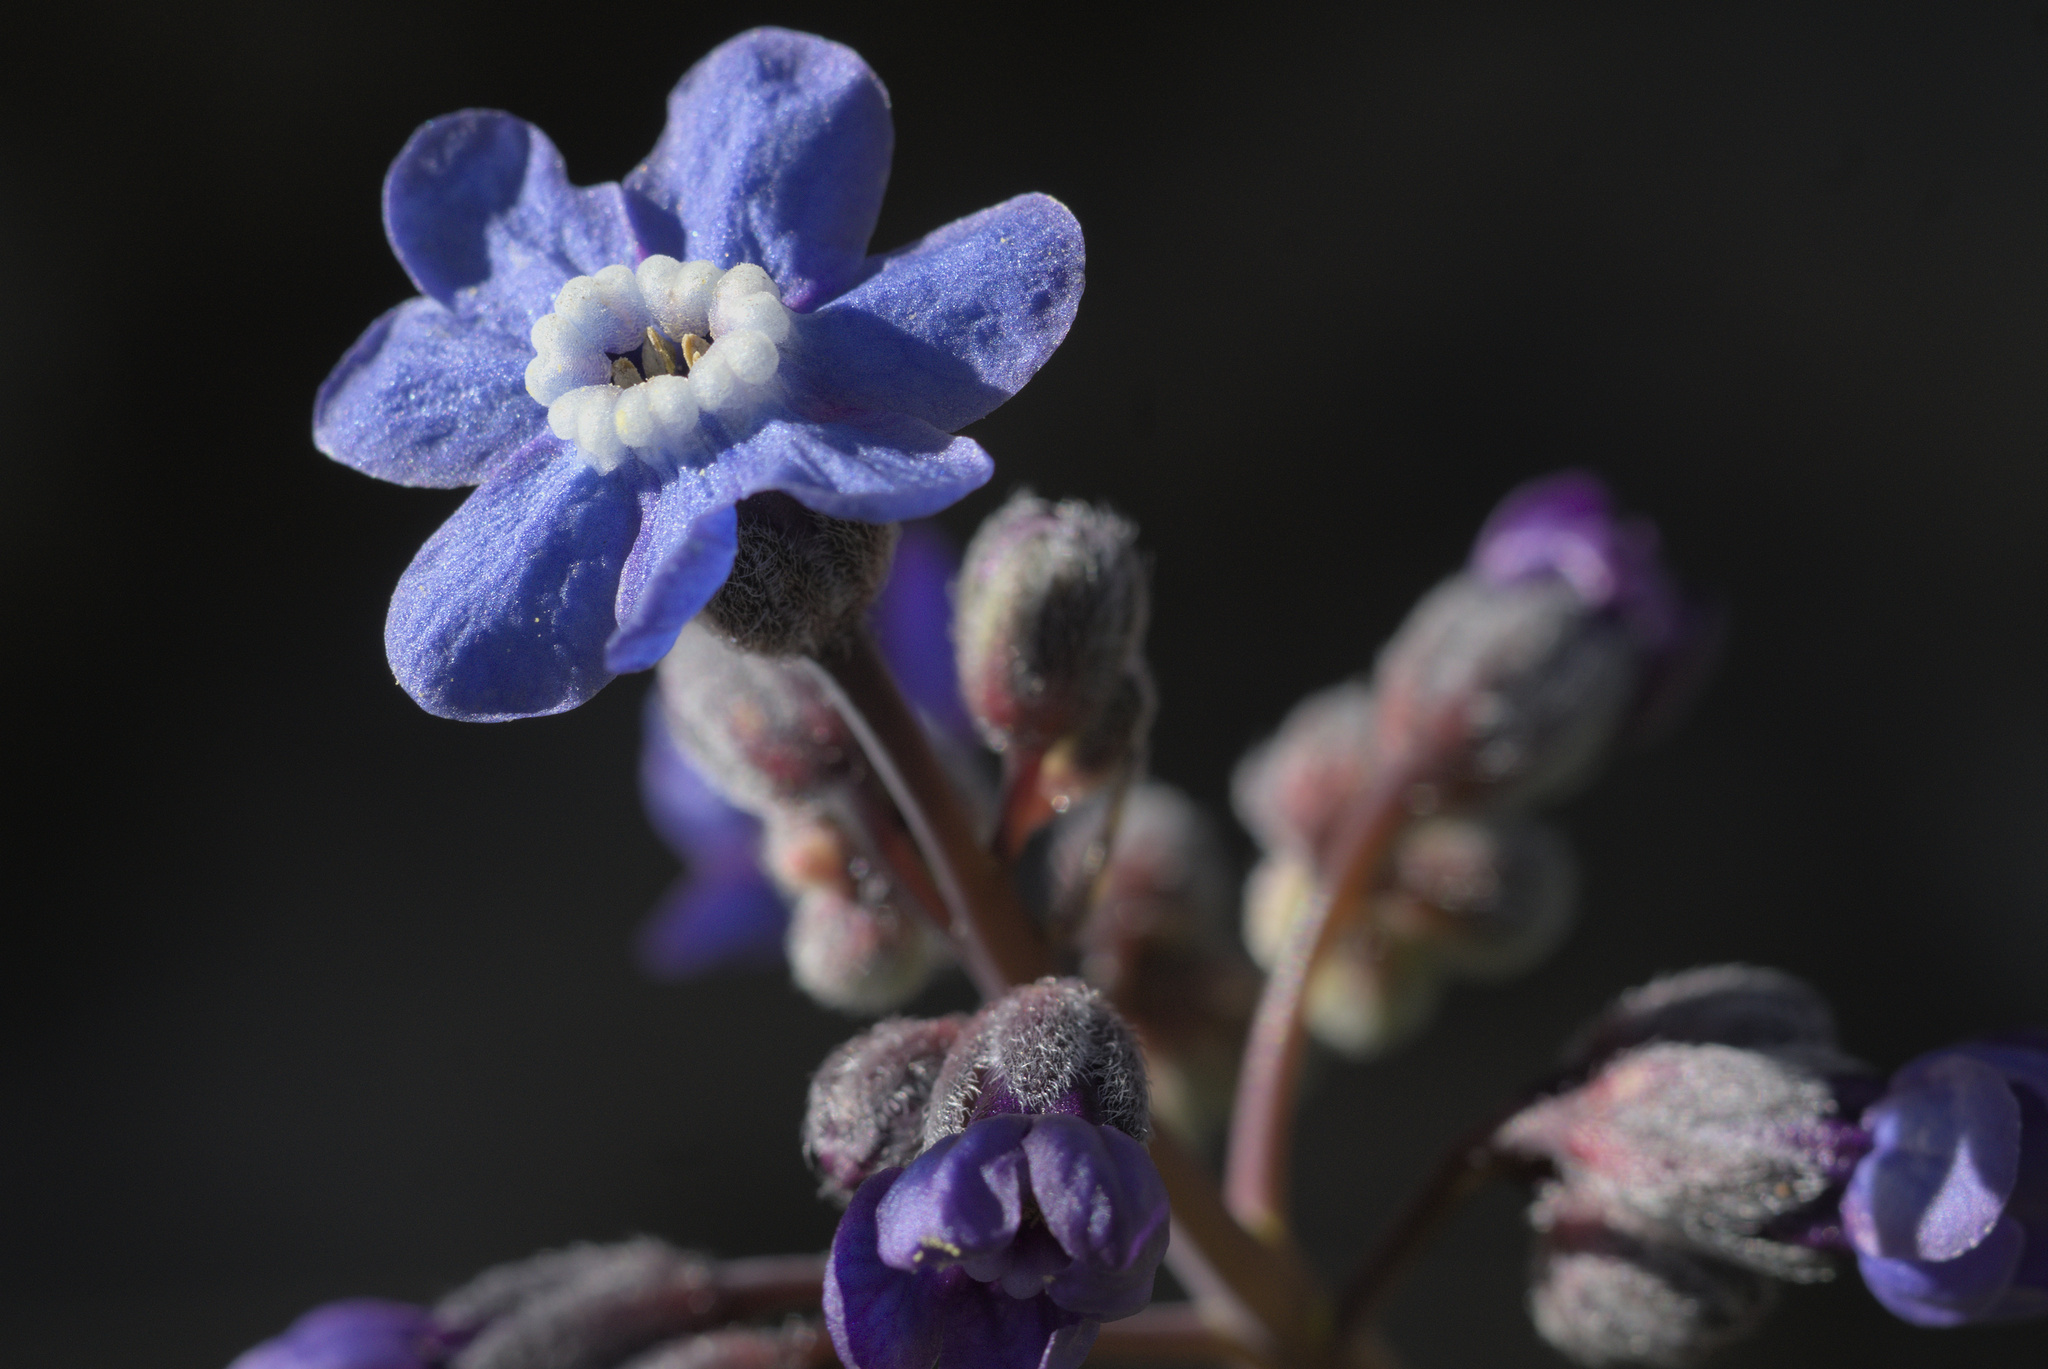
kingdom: Plantae
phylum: Tracheophyta
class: Magnoliopsida
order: Boraginales
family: Boraginaceae
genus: Adelinia
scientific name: Adelinia grande
